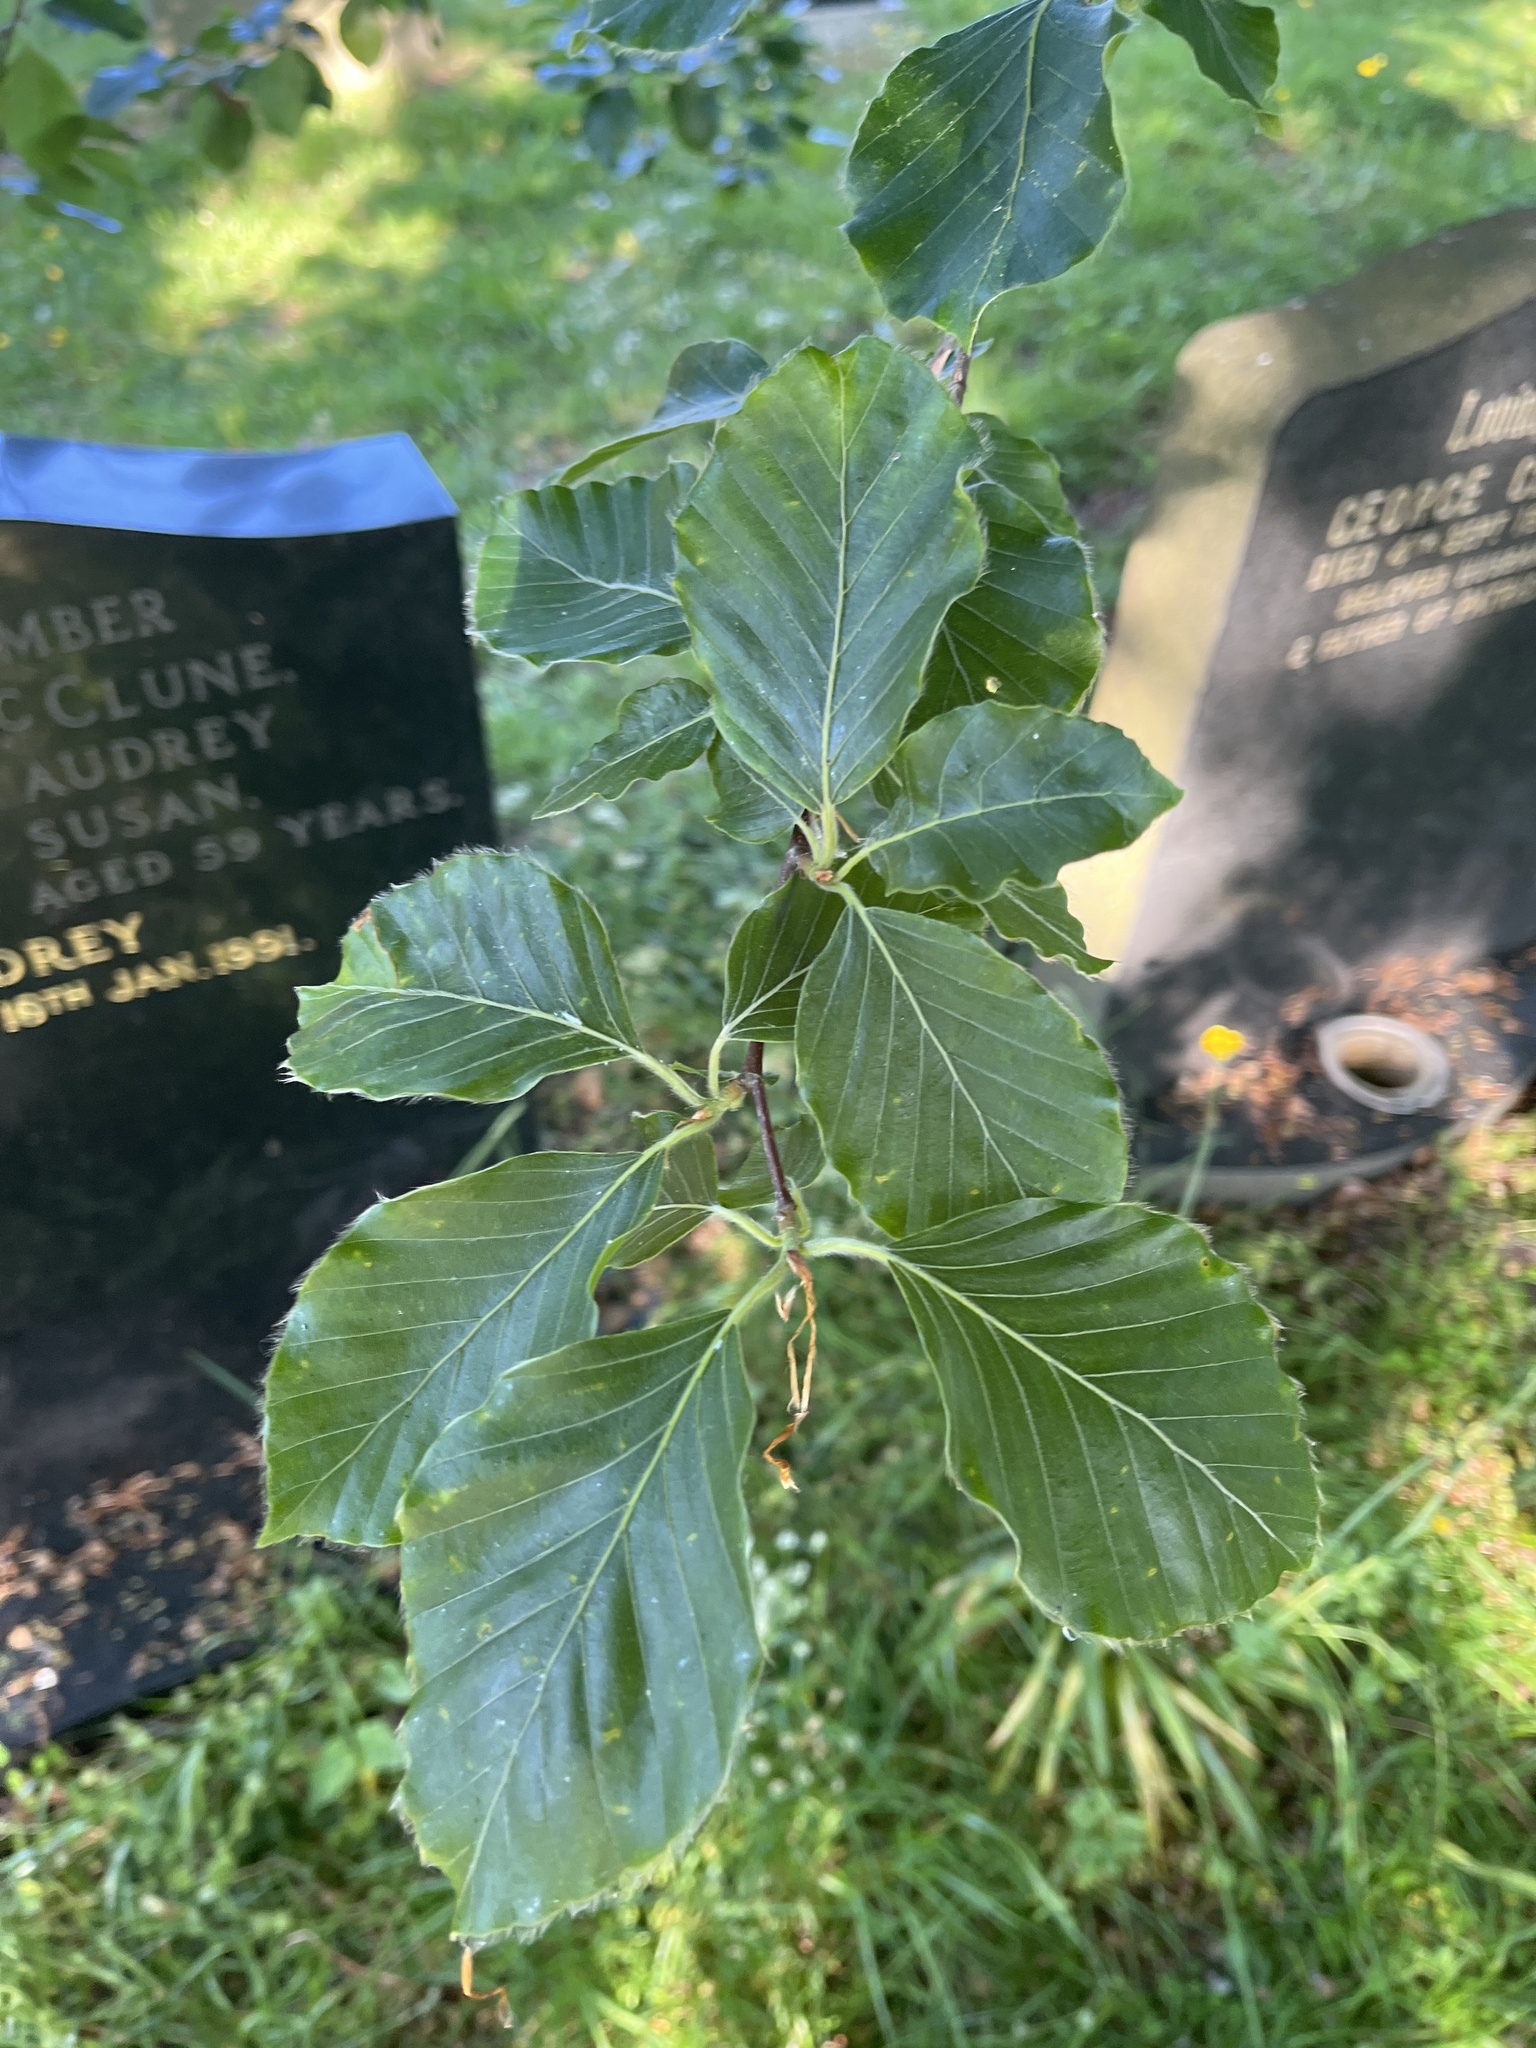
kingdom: Plantae
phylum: Tracheophyta
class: Magnoliopsida
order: Fagales
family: Fagaceae
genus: Fagus
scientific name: Fagus sylvatica
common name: Beech
